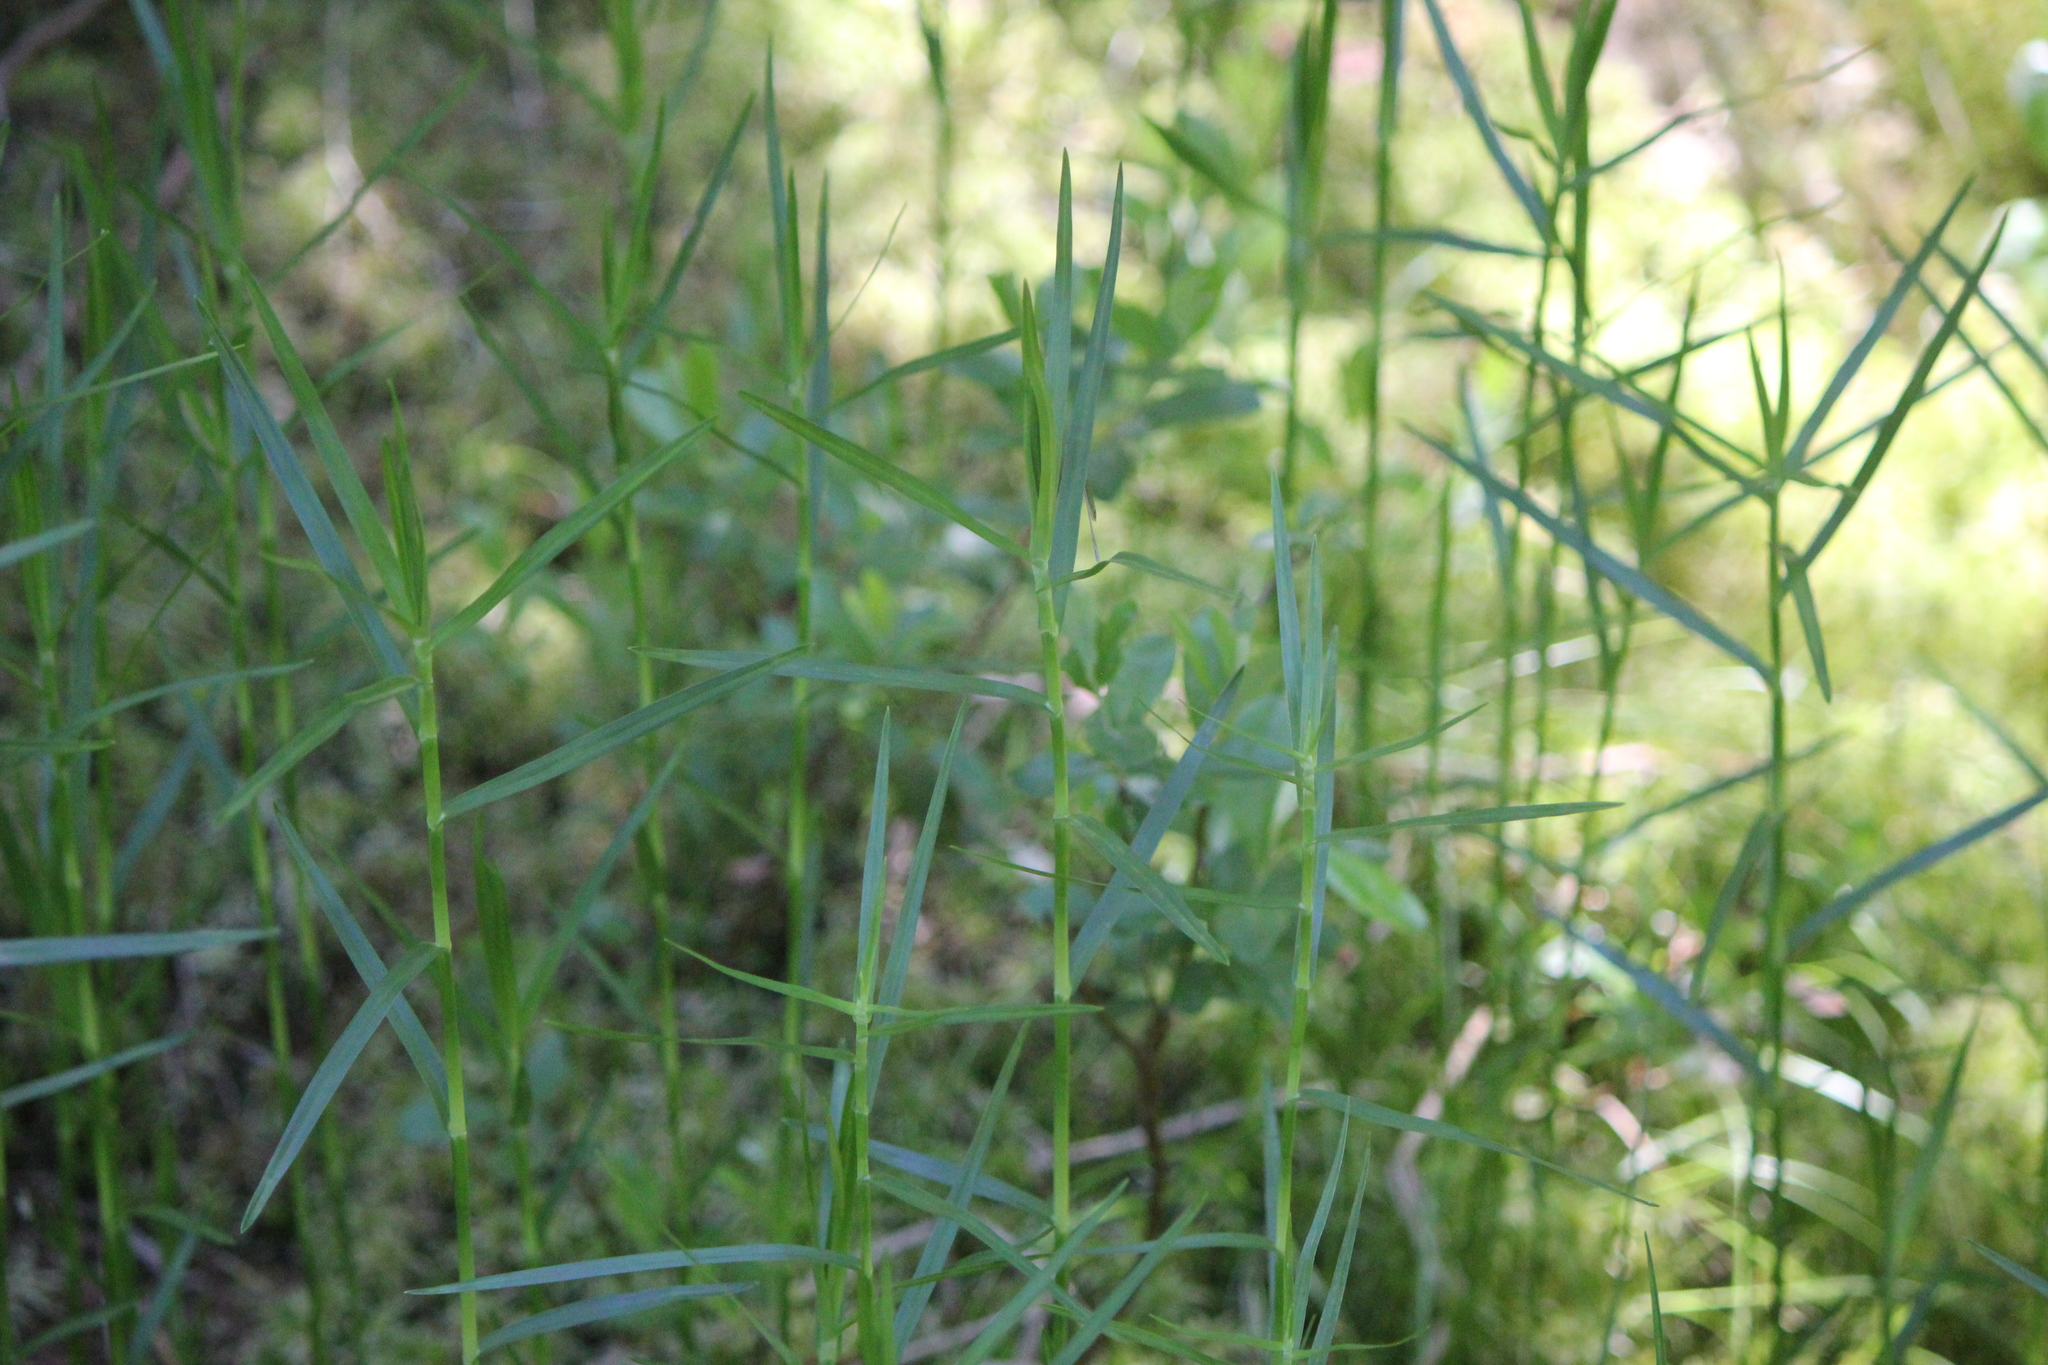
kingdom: Plantae
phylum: Tracheophyta
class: Liliopsida
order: Poales
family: Cyperaceae
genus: Dulichium
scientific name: Dulichium arundinaceum
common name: Three-way sedge
